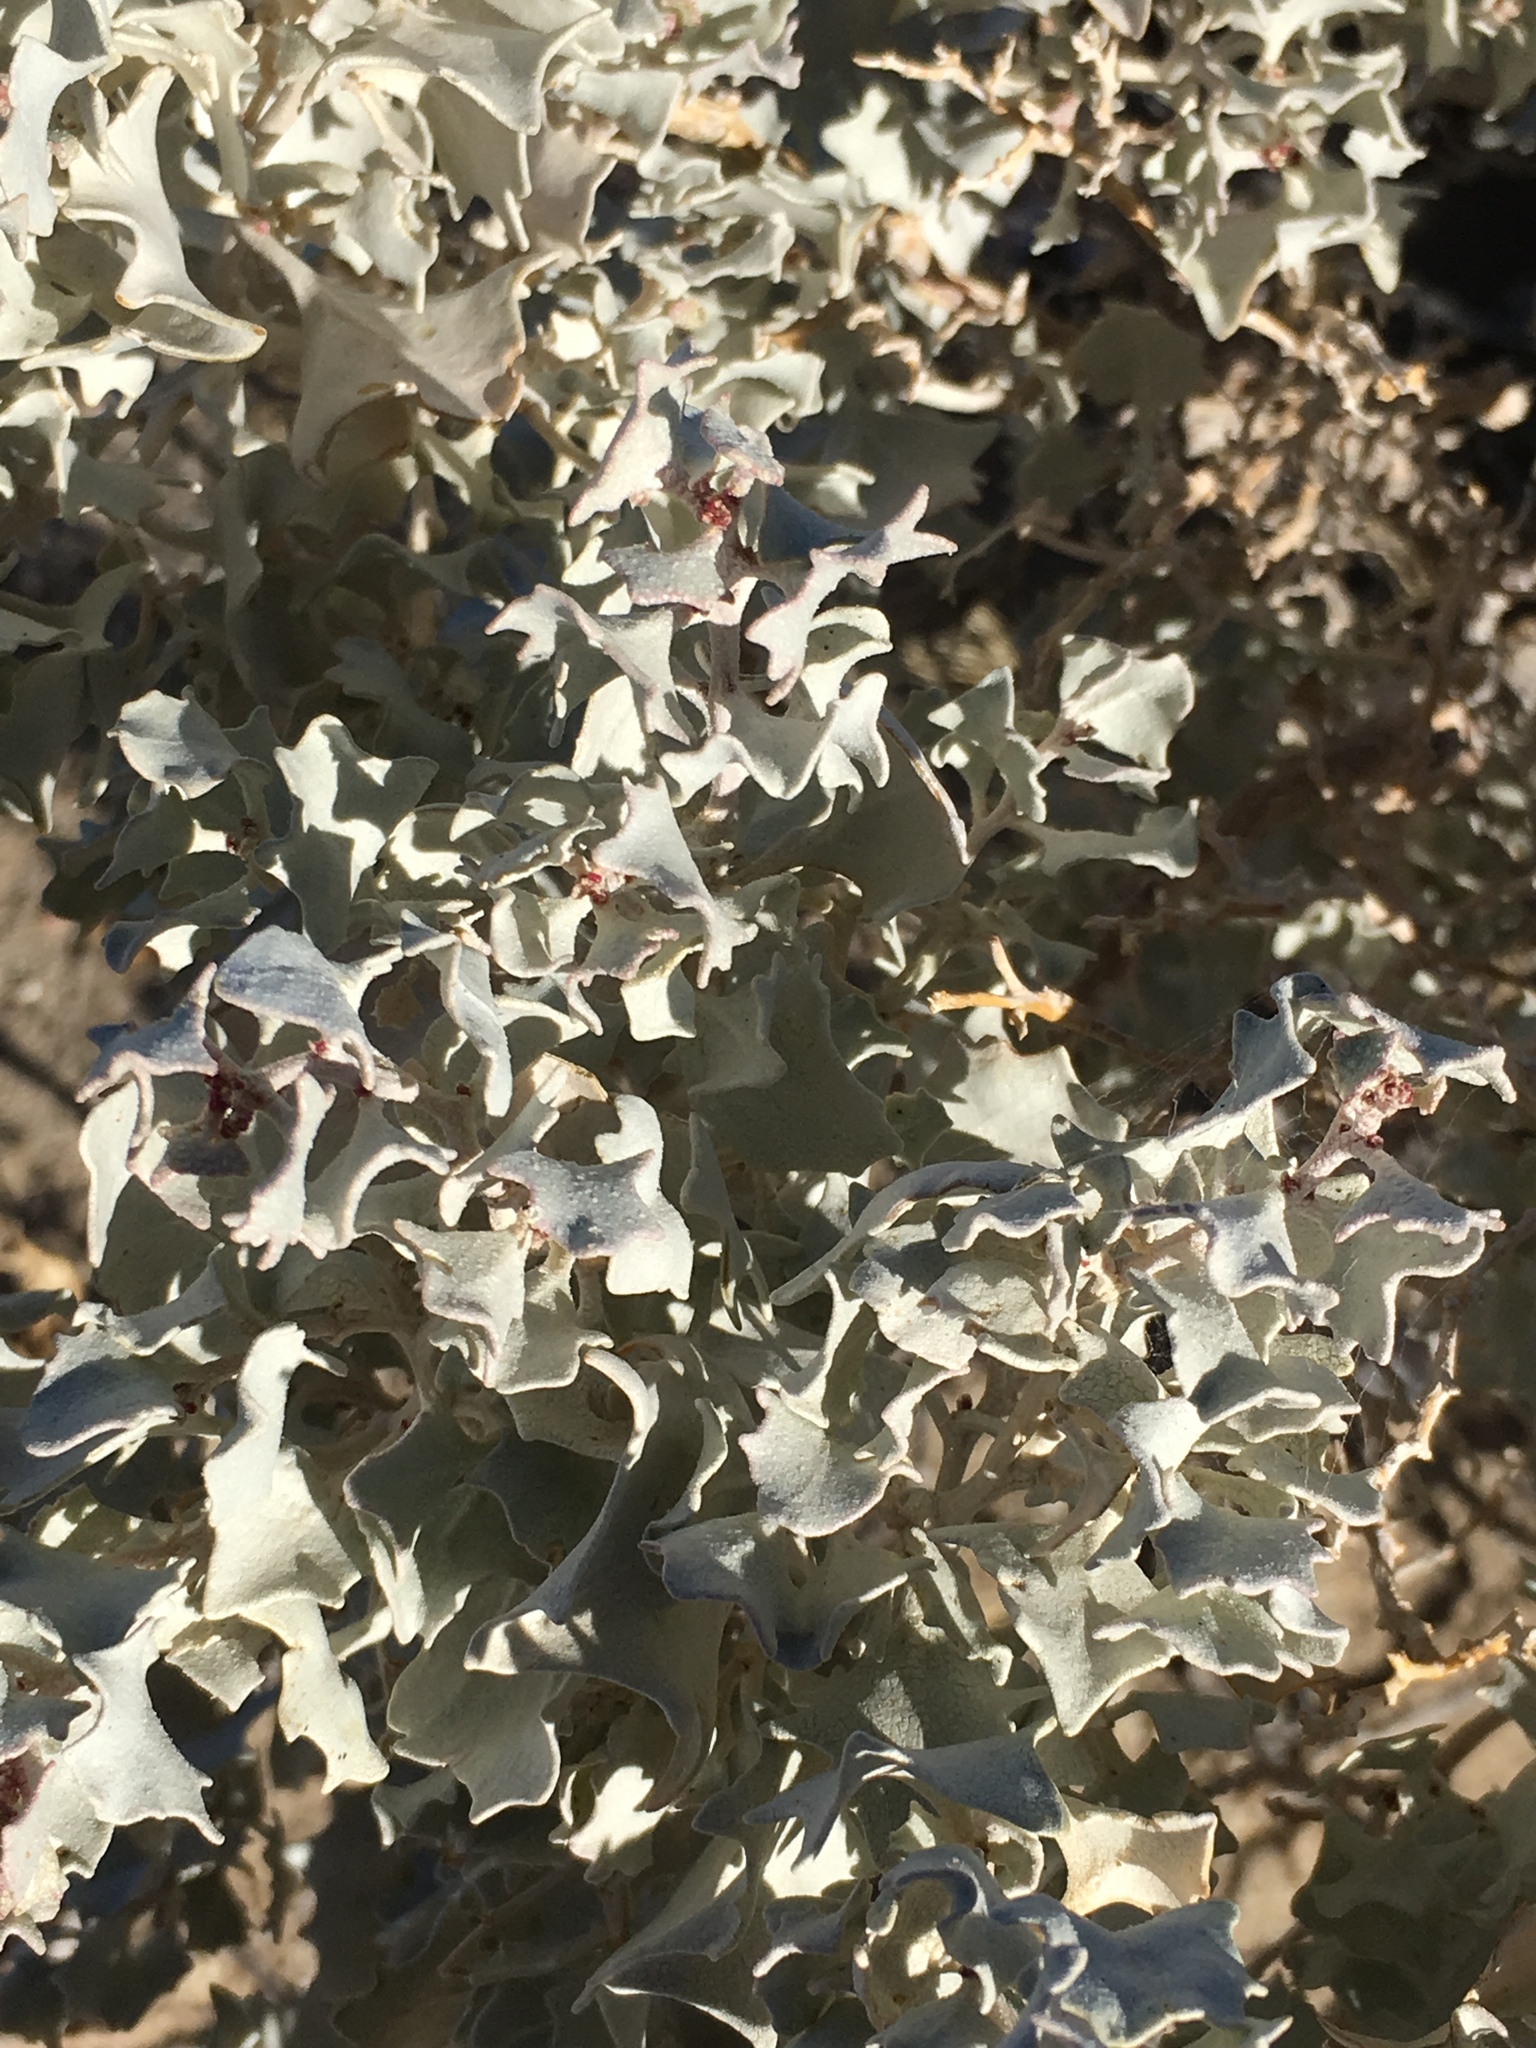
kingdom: Plantae
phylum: Tracheophyta
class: Magnoliopsida
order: Caryophyllales
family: Amaranthaceae
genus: Atriplex
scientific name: Atriplex hymenelytra
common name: Desert-holly
